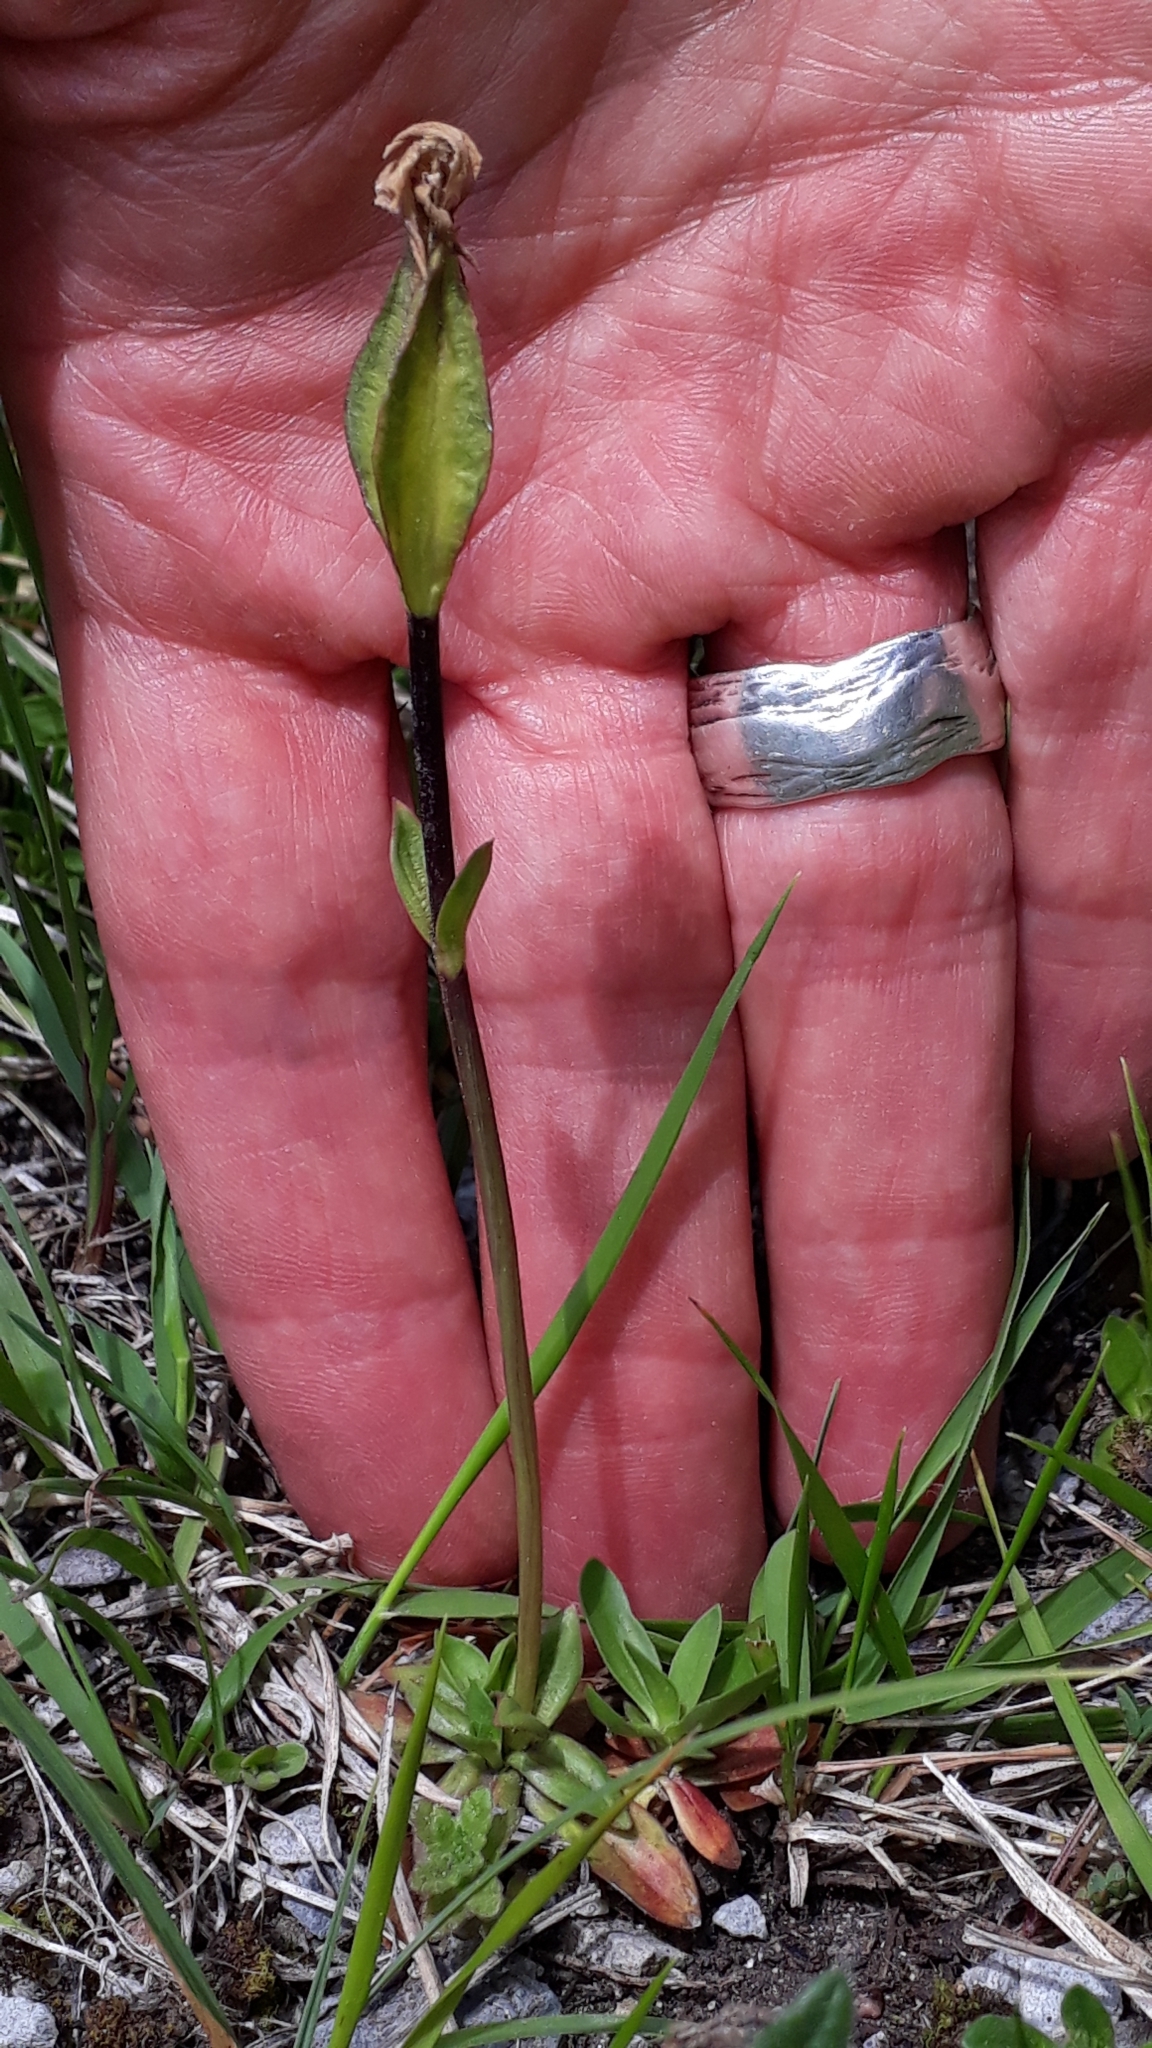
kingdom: Plantae
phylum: Tracheophyta
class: Magnoliopsida
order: Gentianales
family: Gentianaceae
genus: Gentiana
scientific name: Gentiana verna
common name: Spring gentian
